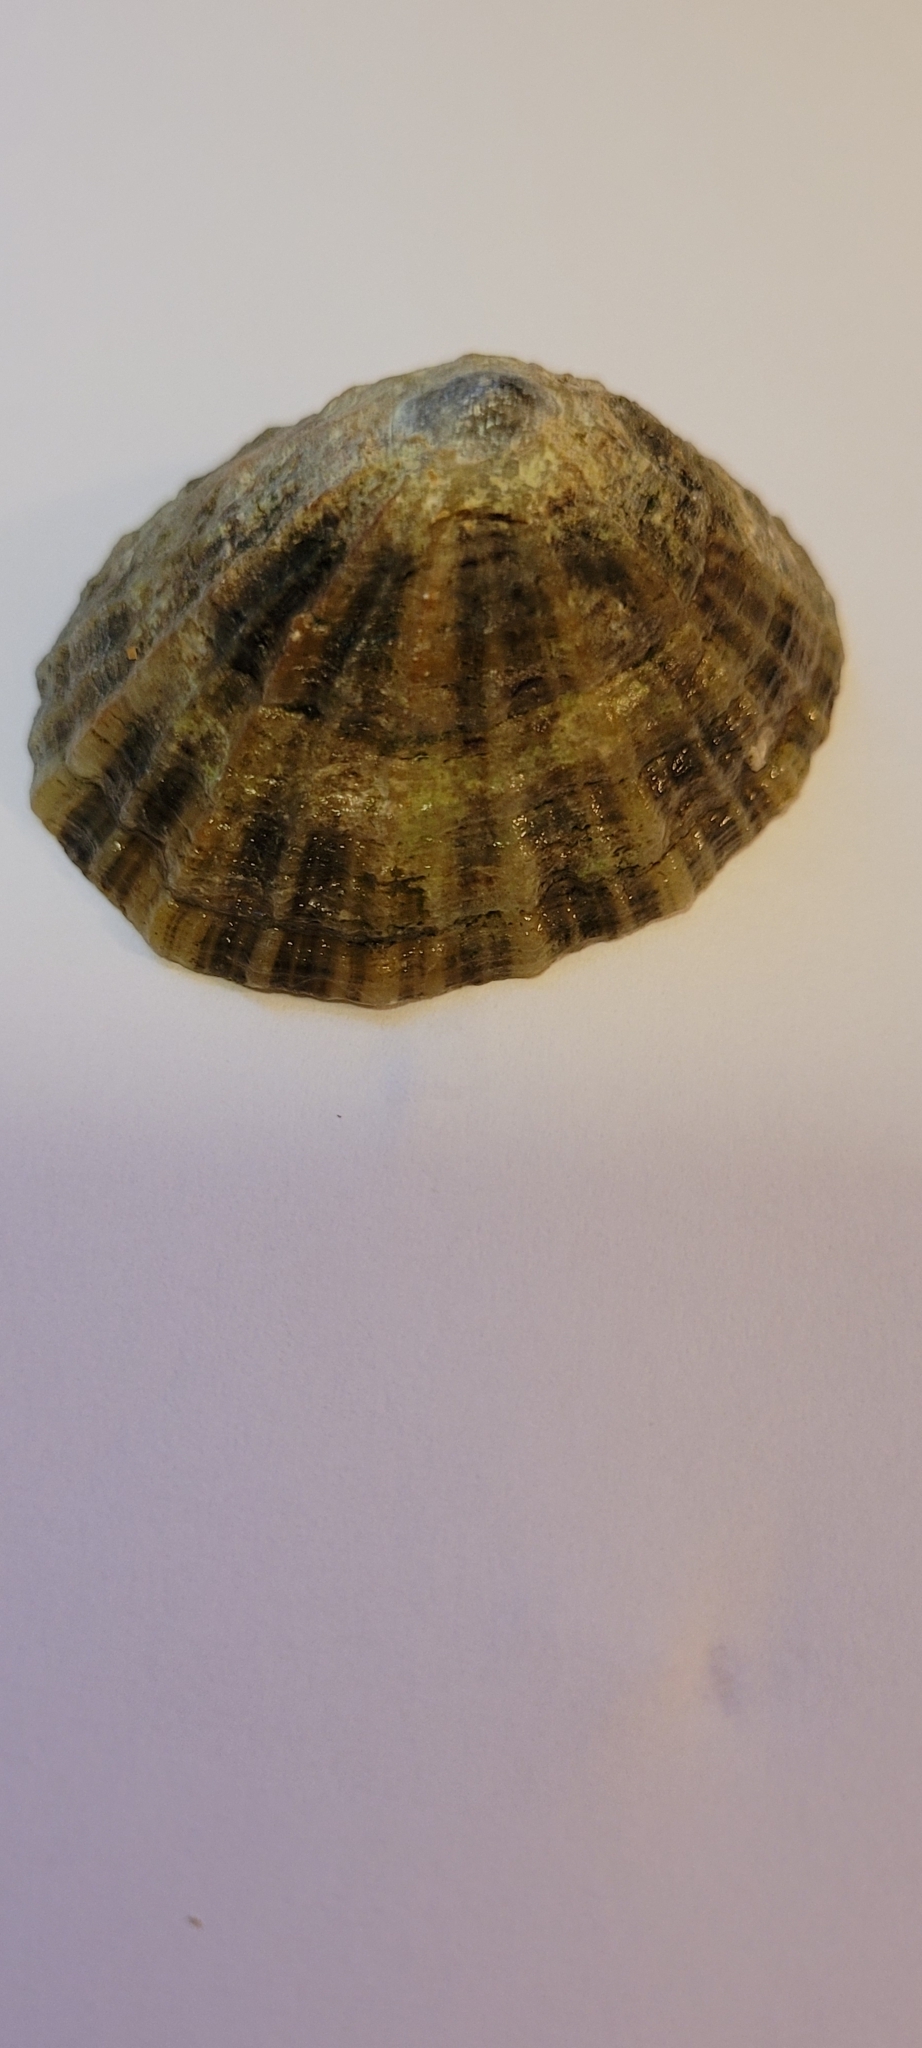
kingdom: Animalia
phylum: Mollusca
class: Gastropoda
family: Patellidae
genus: Patella
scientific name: Patella vulgata
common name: Common limpet
